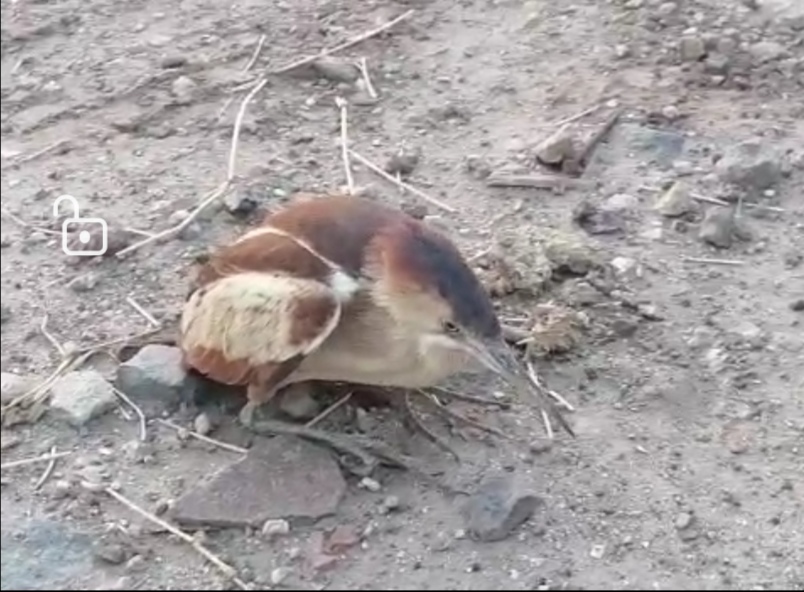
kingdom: Animalia
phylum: Chordata
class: Aves
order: Pelecaniformes
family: Ardeidae
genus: Ixobrychus
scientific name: Ixobrychus exilis
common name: Least bittern
